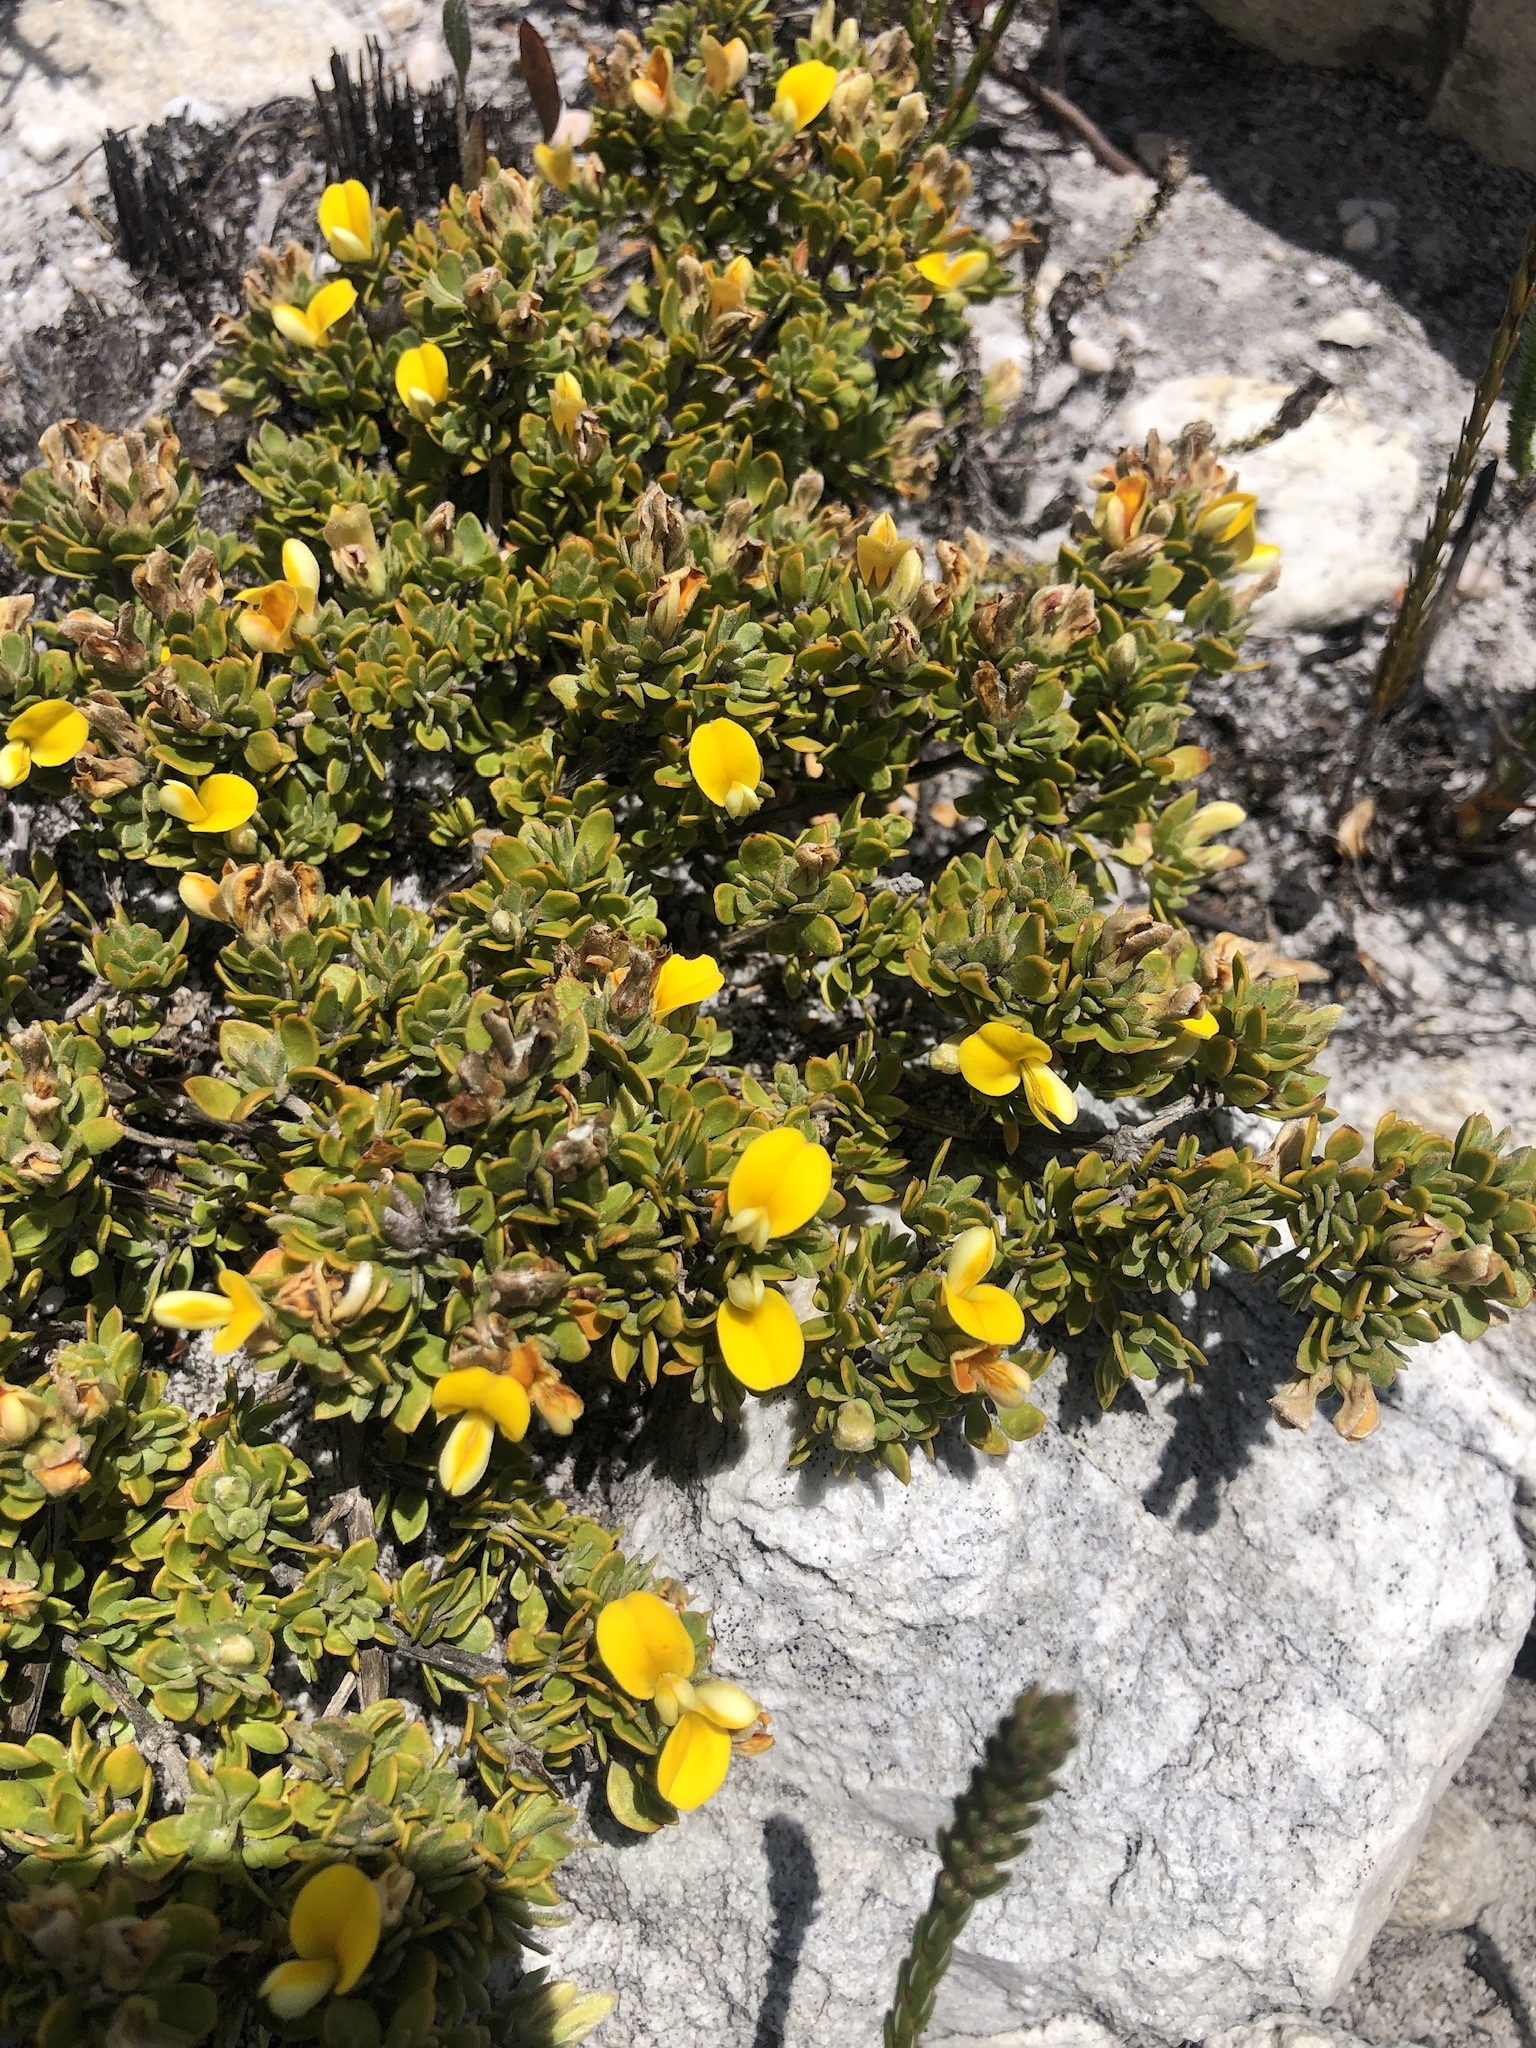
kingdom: Plantae
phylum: Tracheophyta
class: Magnoliopsida
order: Fabales
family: Fabaceae
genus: Aspalathus
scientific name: Aspalathus marginata
